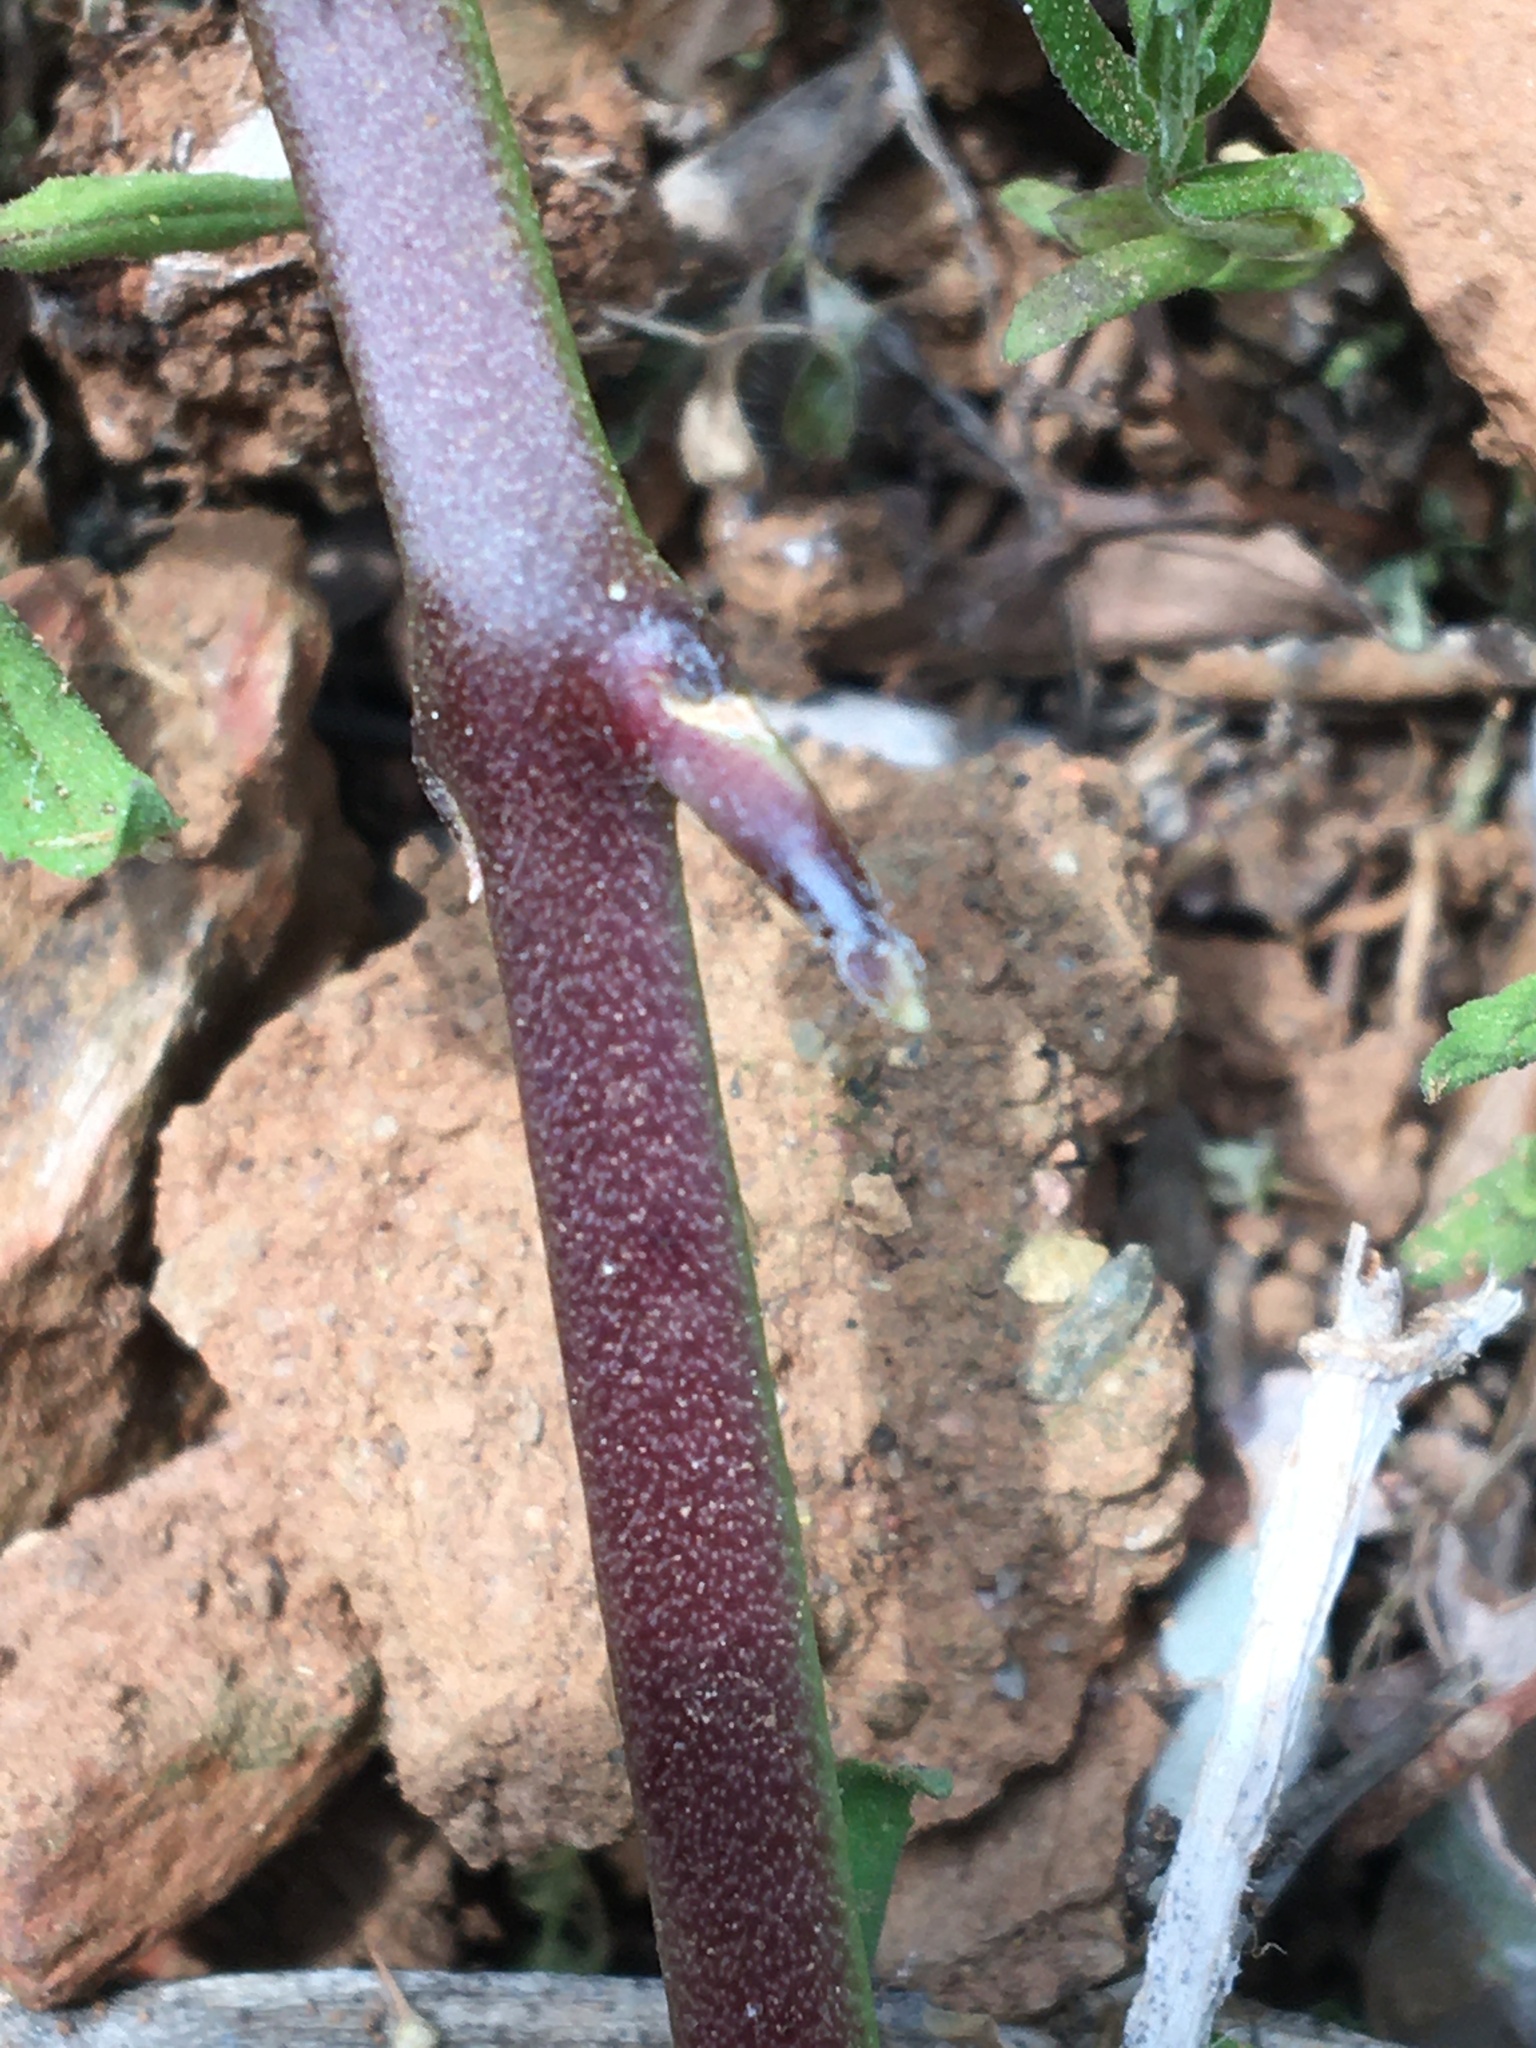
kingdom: Plantae
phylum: Tracheophyta
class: Magnoliopsida
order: Gentianales
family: Apocynaceae
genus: Cynanchum
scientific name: Cynanchum viminale
